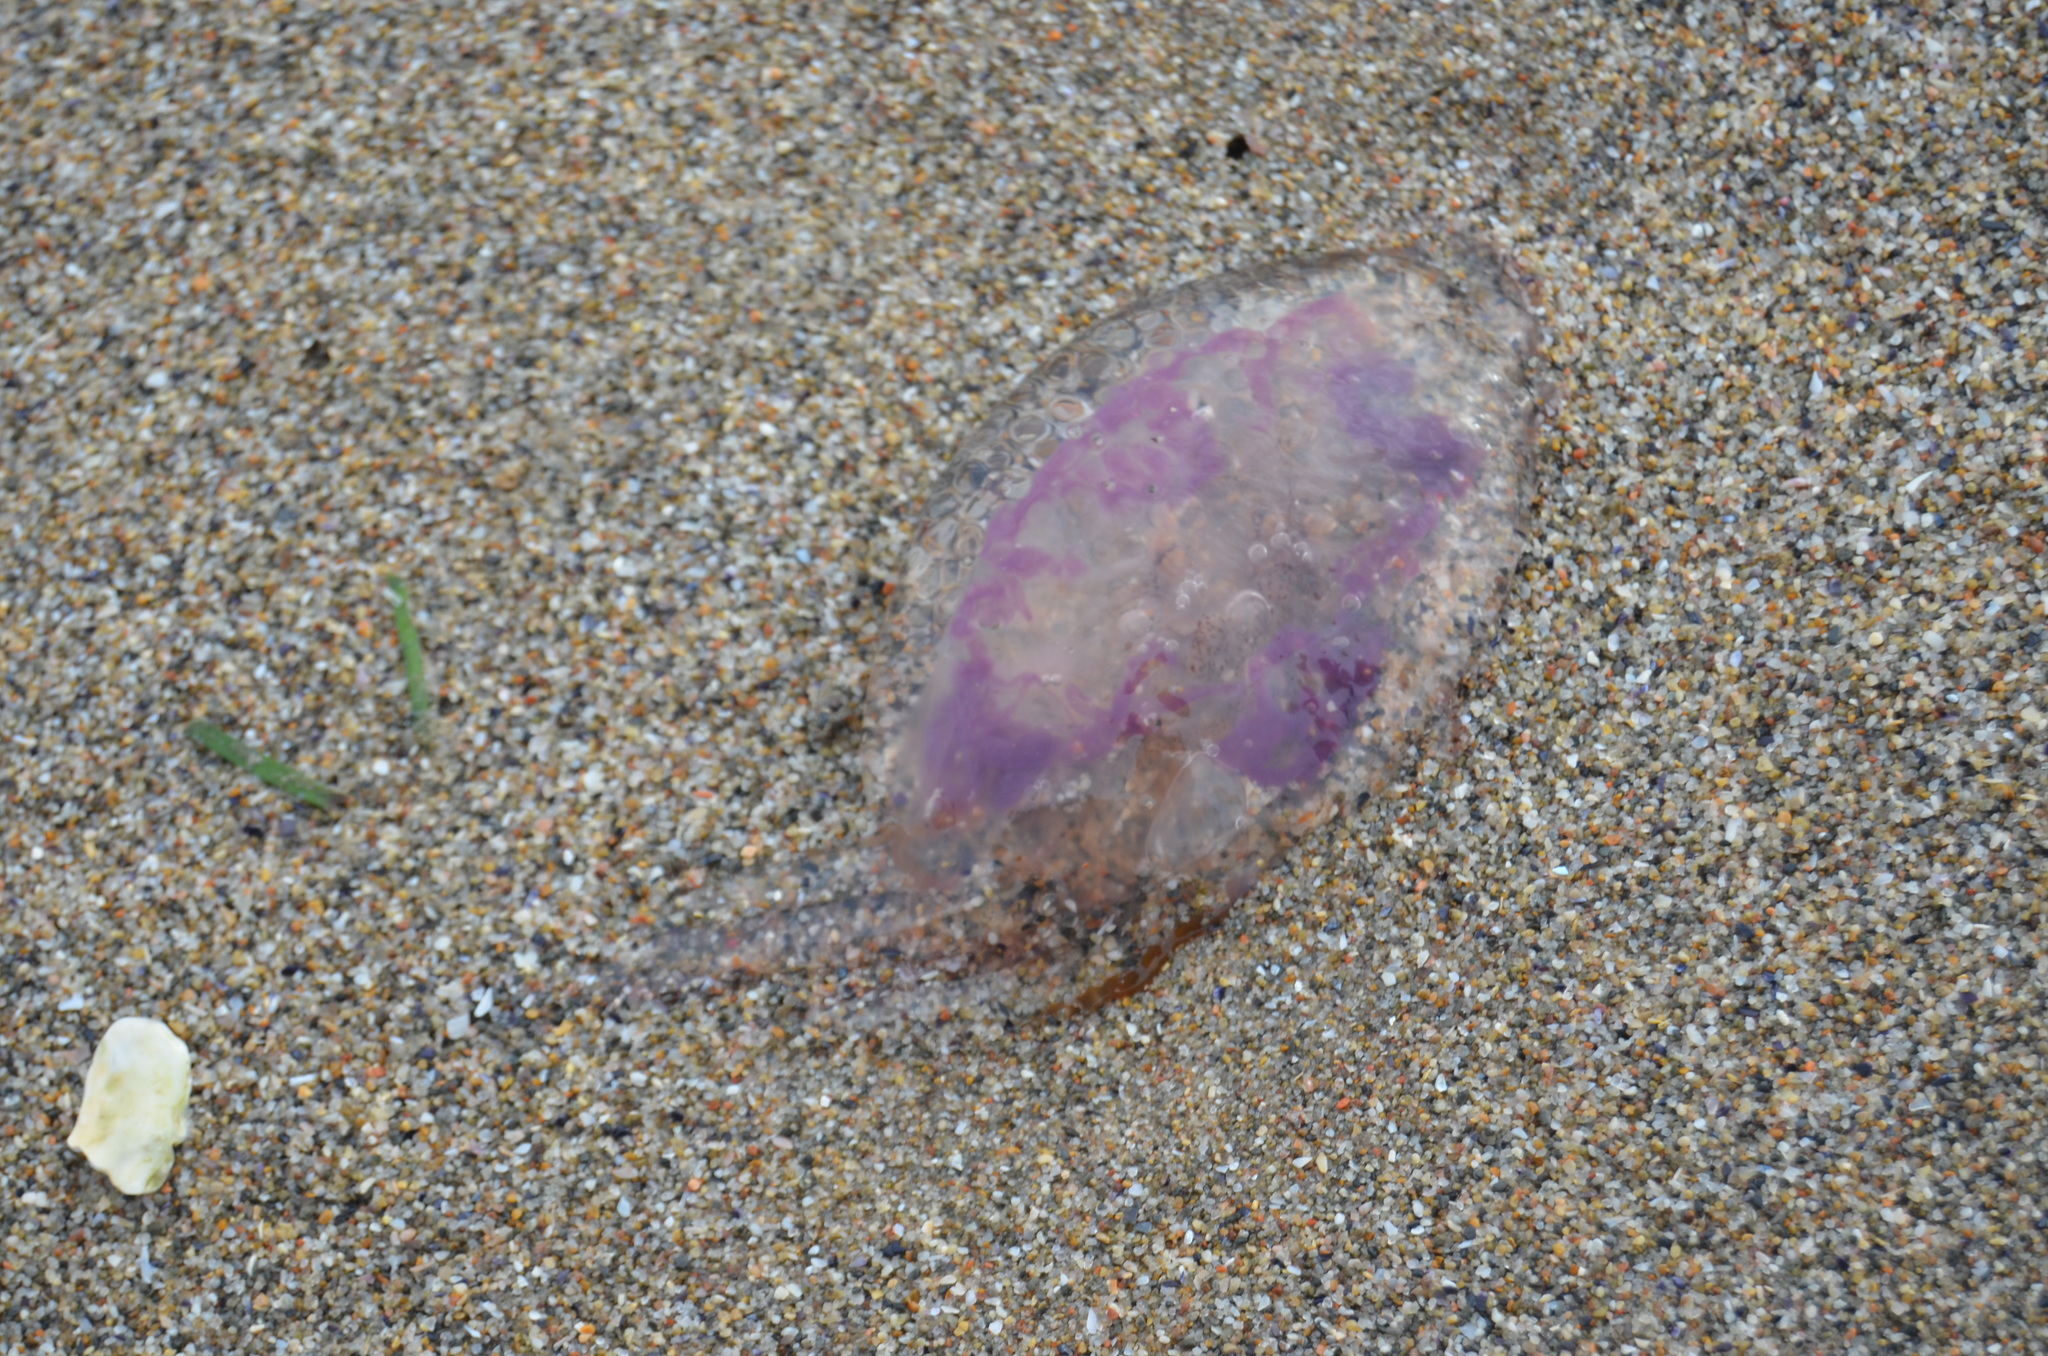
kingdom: Animalia
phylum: Cnidaria
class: Scyphozoa
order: Semaeostomeae
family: Pelagiidae
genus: Pelagia
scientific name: Pelagia noctiluca
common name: Mauve stinger
